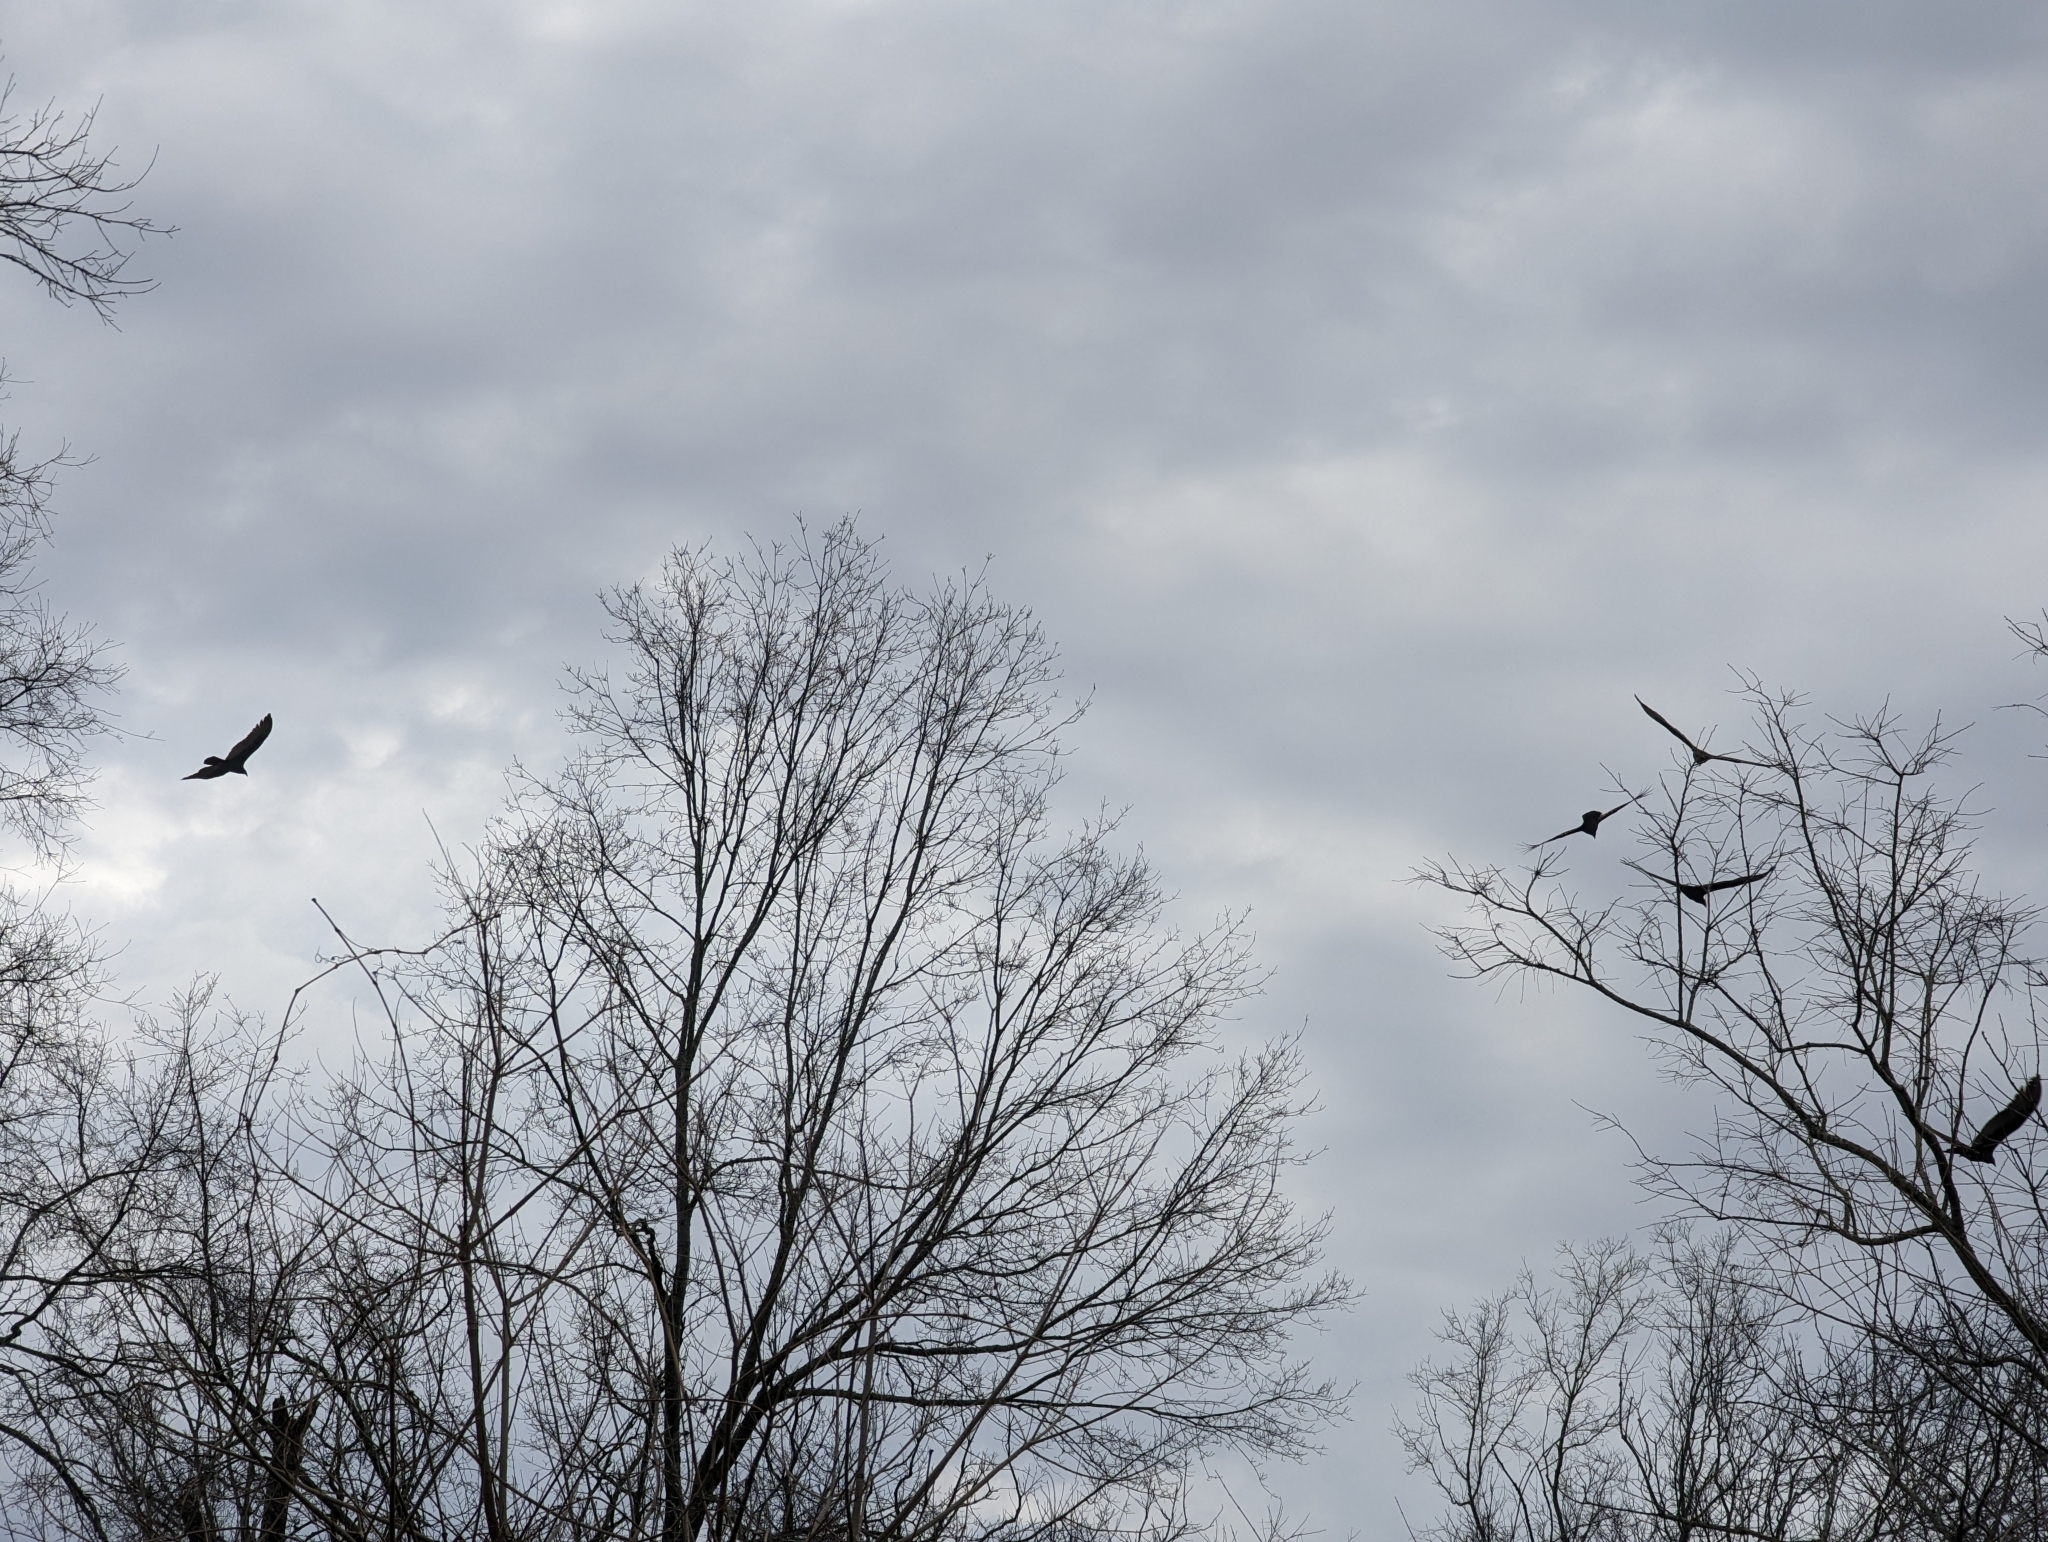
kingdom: Animalia
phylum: Chordata
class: Aves
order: Accipitriformes
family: Cathartidae
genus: Cathartes
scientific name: Cathartes aura
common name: Turkey vulture
